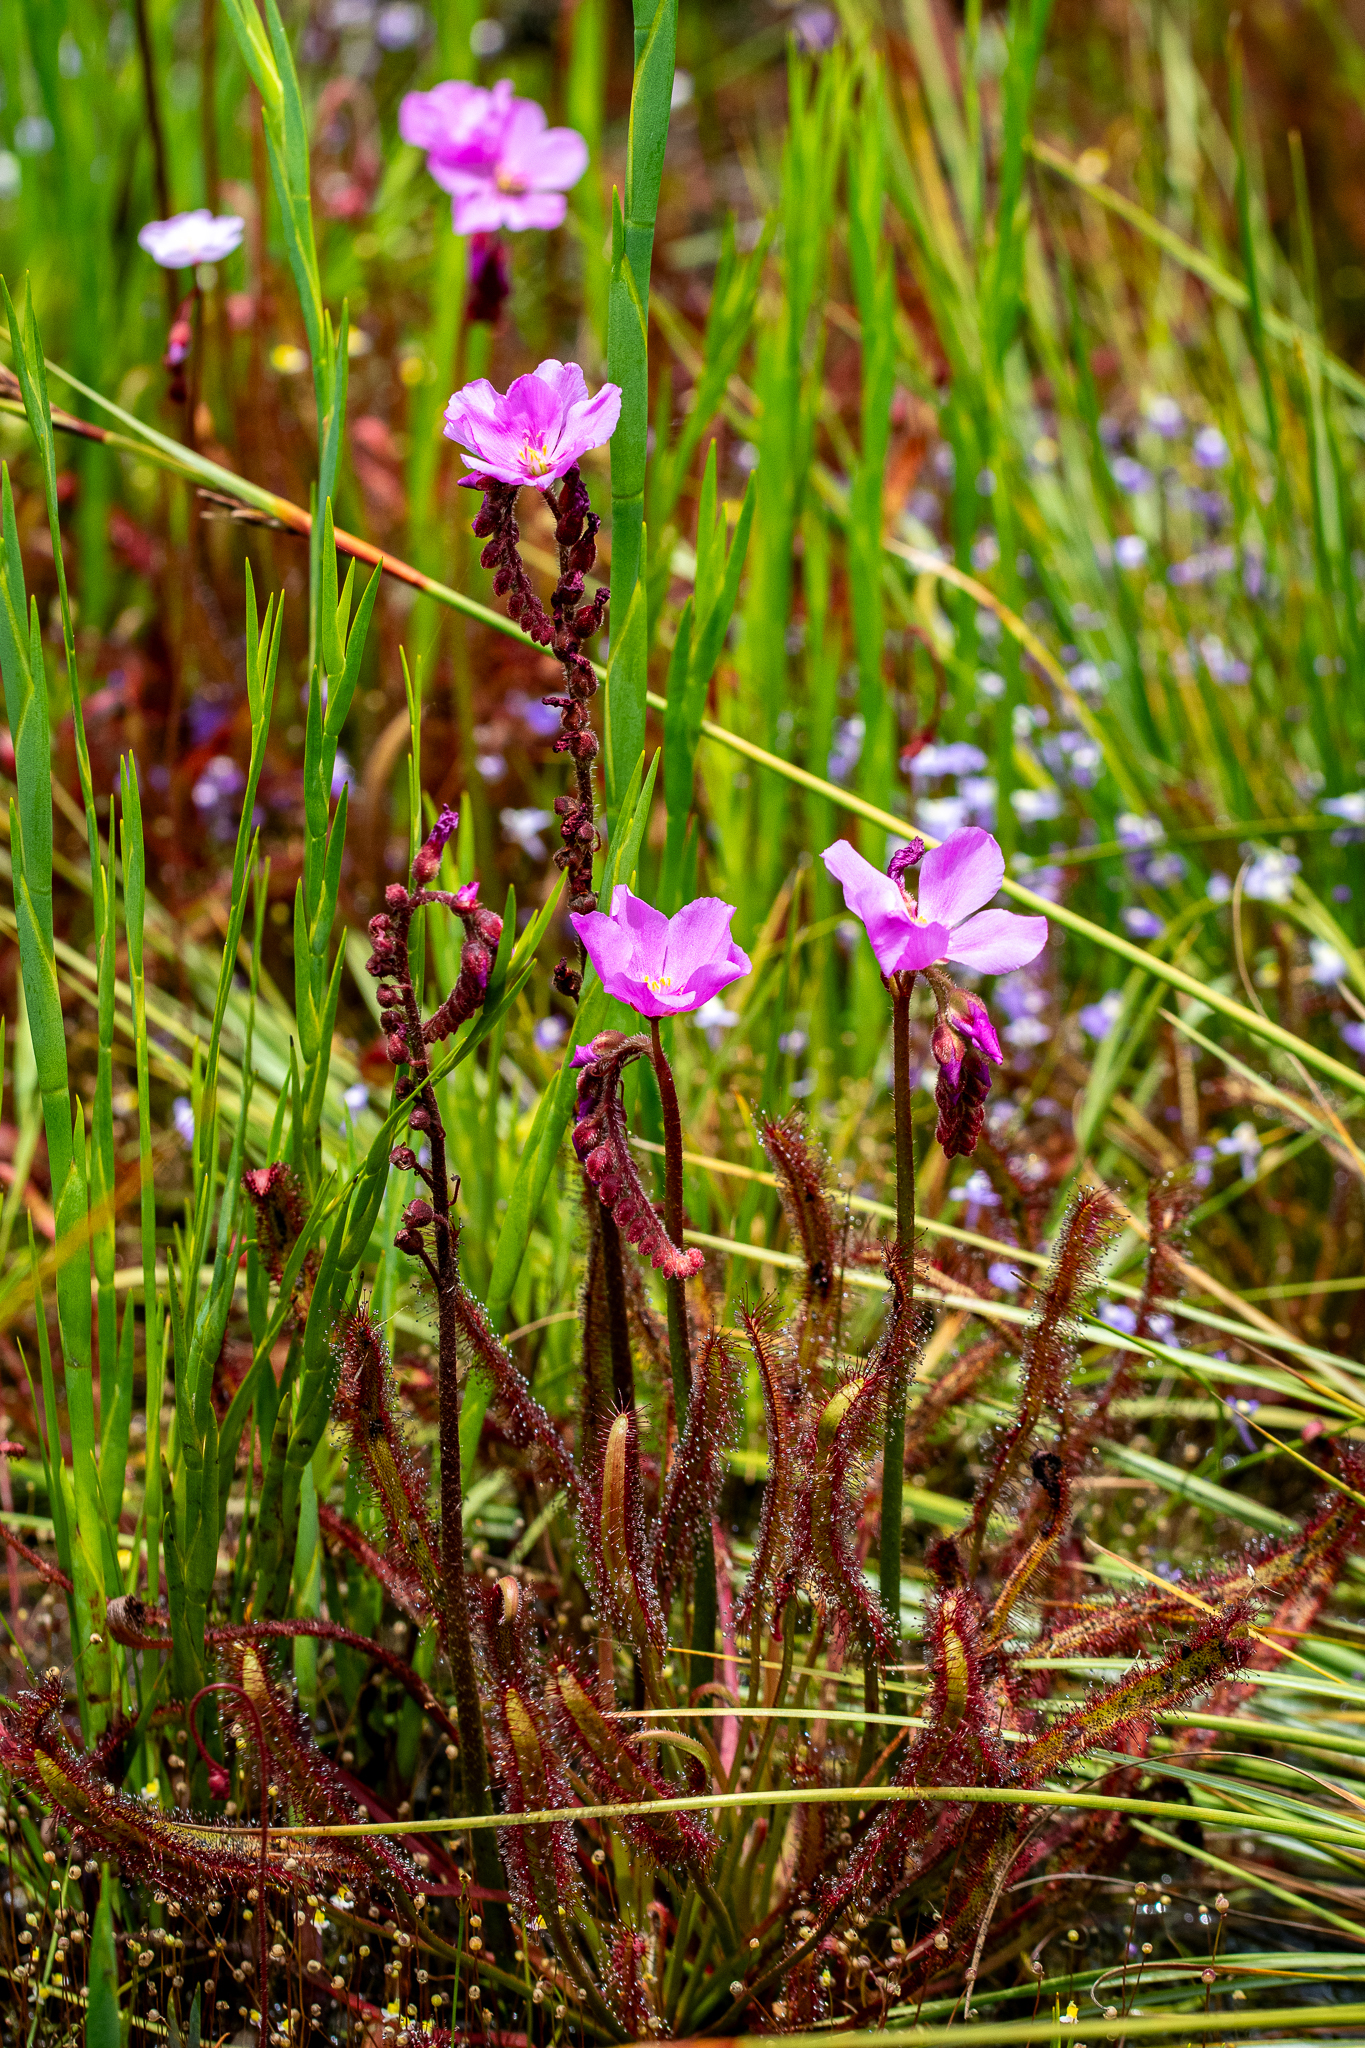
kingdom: Plantae
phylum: Tracheophyta
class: Magnoliopsida
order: Caryophyllales
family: Droseraceae
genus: Drosera
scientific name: Drosera capensis
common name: Cape sundew
